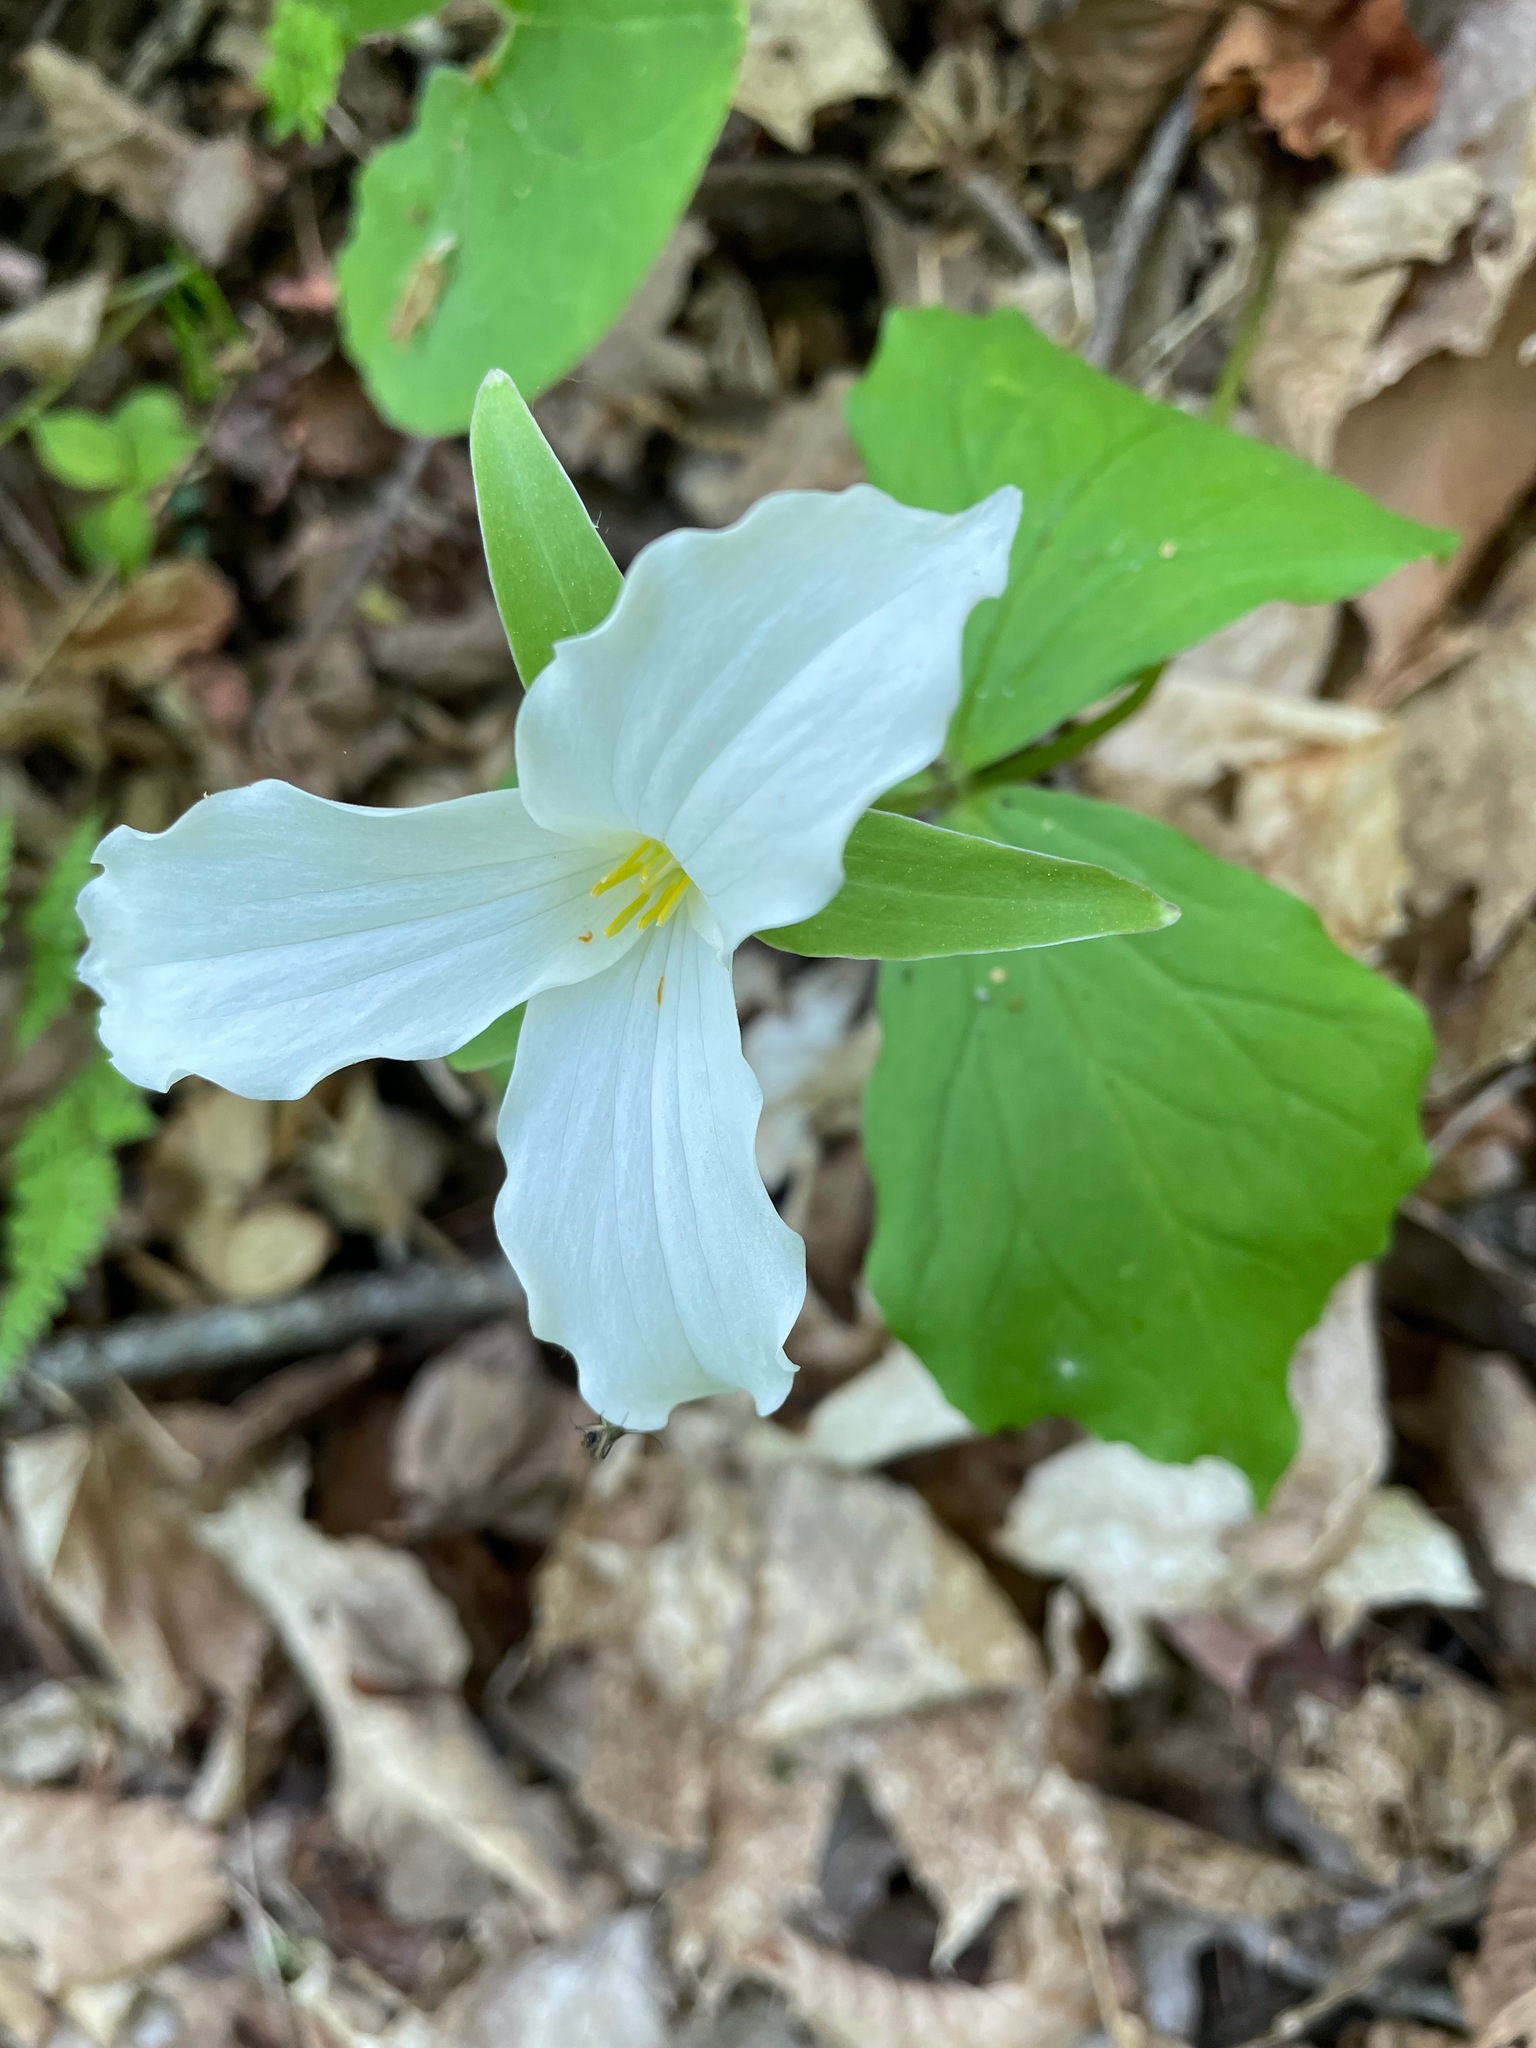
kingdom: Plantae
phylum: Tracheophyta
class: Liliopsida
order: Liliales
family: Melanthiaceae
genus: Trillium
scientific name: Trillium grandiflorum
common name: Great white trillium
